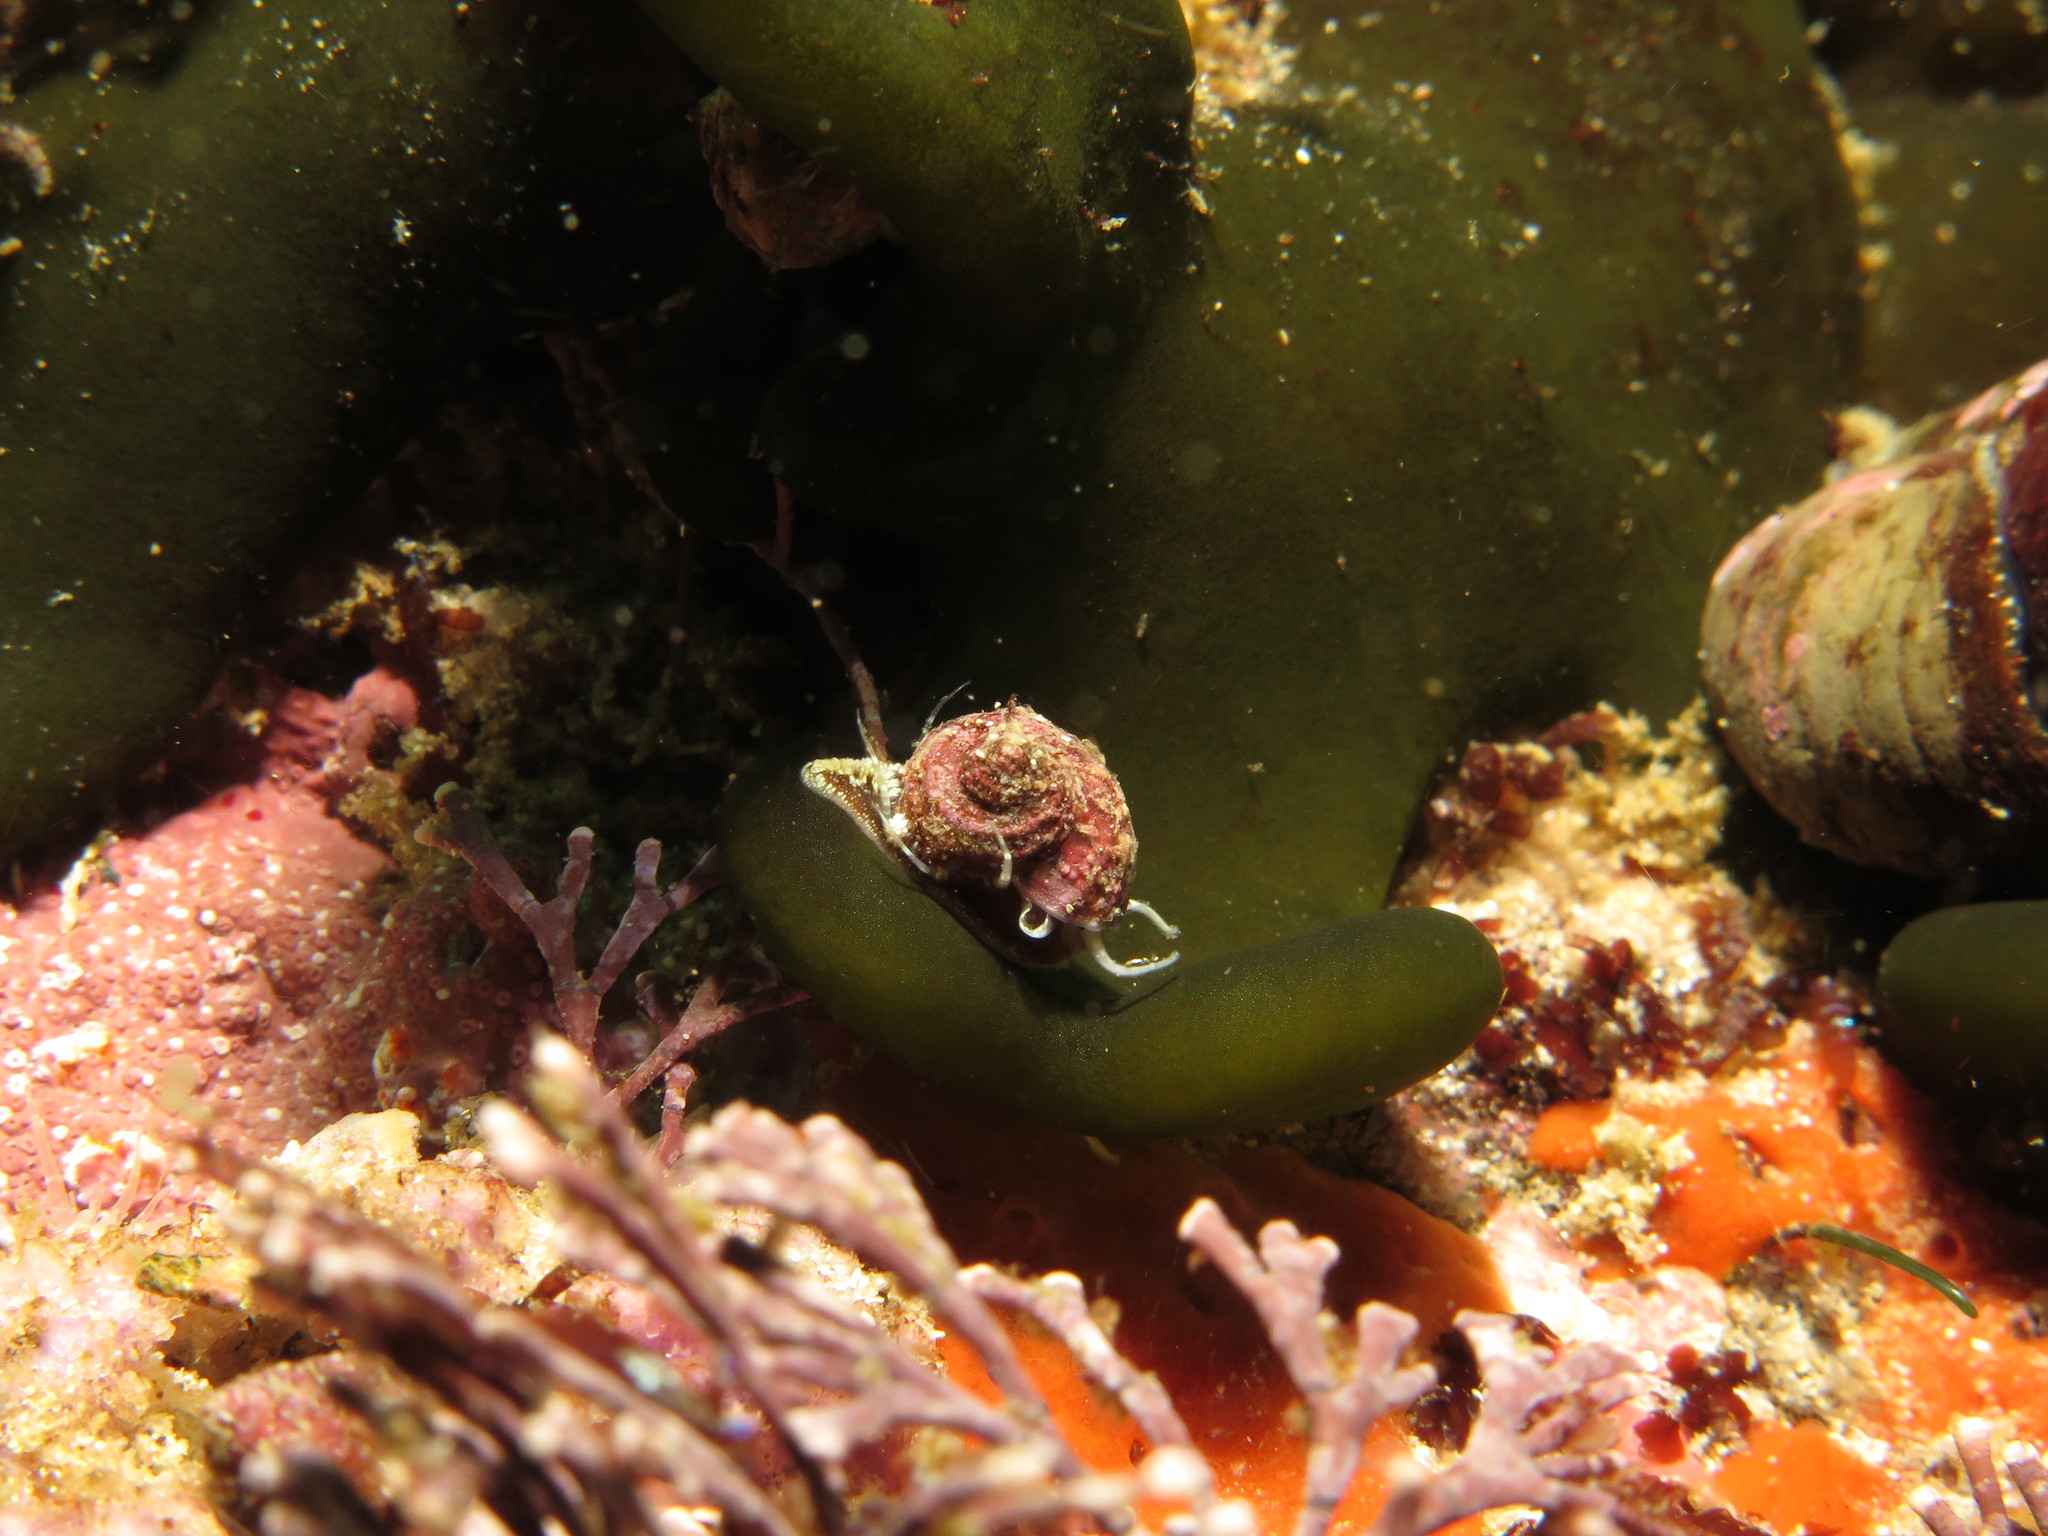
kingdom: Animalia
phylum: Mollusca
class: Gastropoda
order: Trochida
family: Trochidae
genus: Gibbula
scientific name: Gibbula multicolor
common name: Multicoloured topshell
